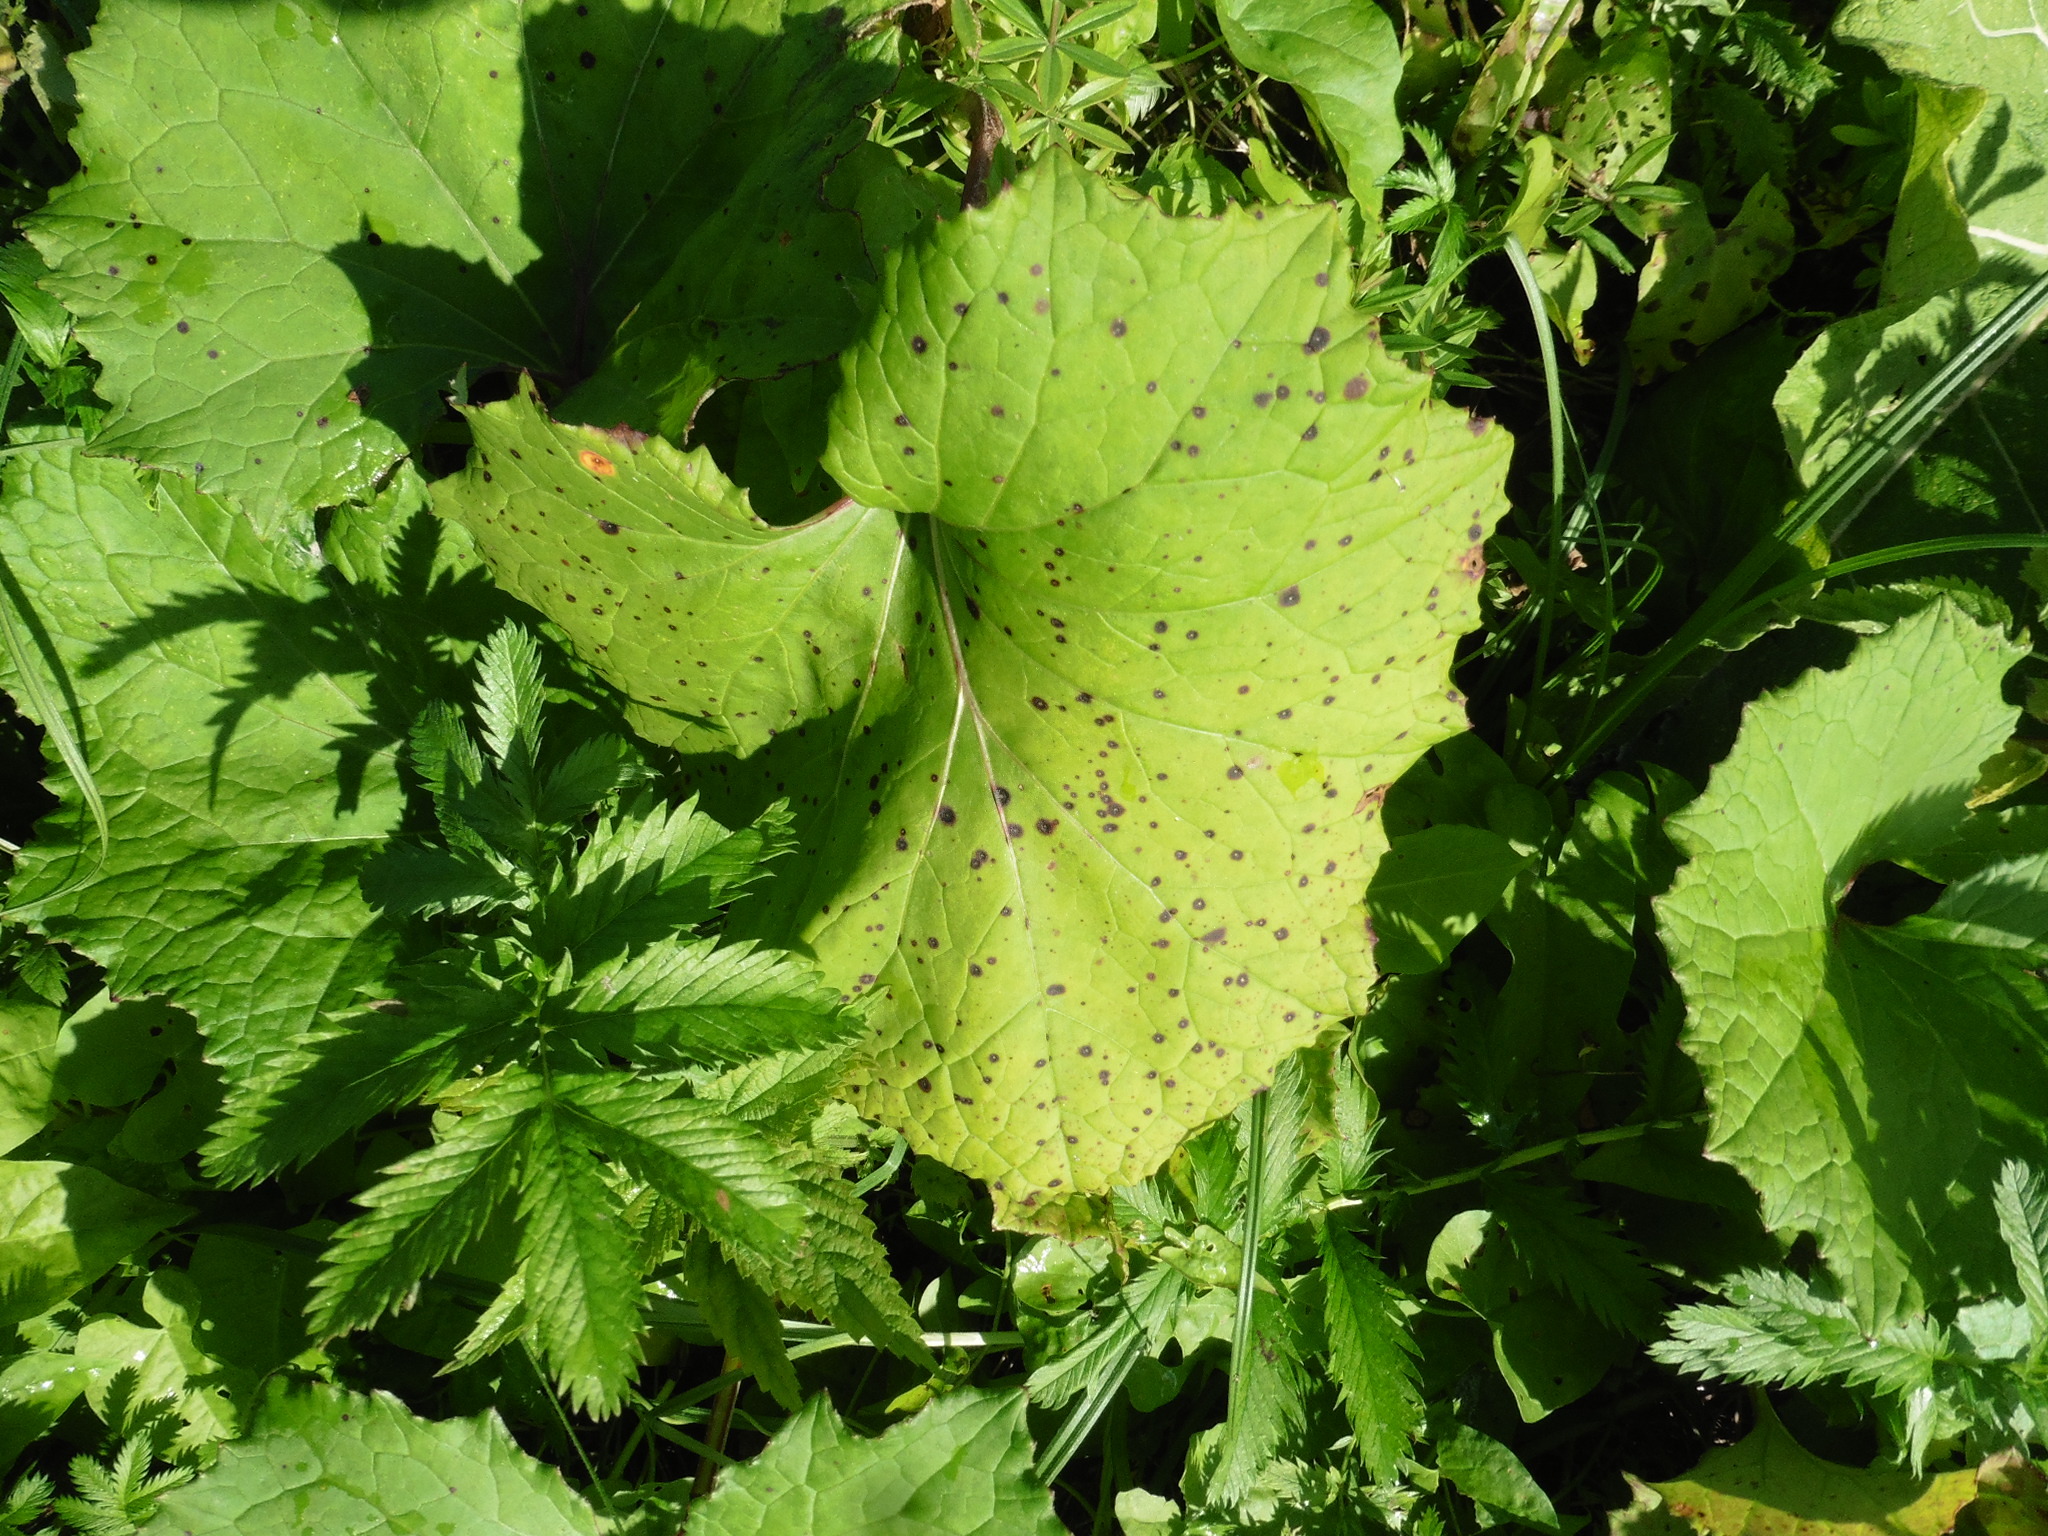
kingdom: Plantae
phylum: Tracheophyta
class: Magnoliopsida
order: Asterales
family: Asteraceae
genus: Tussilago
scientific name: Tussilago farfara
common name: Coltsfoot
